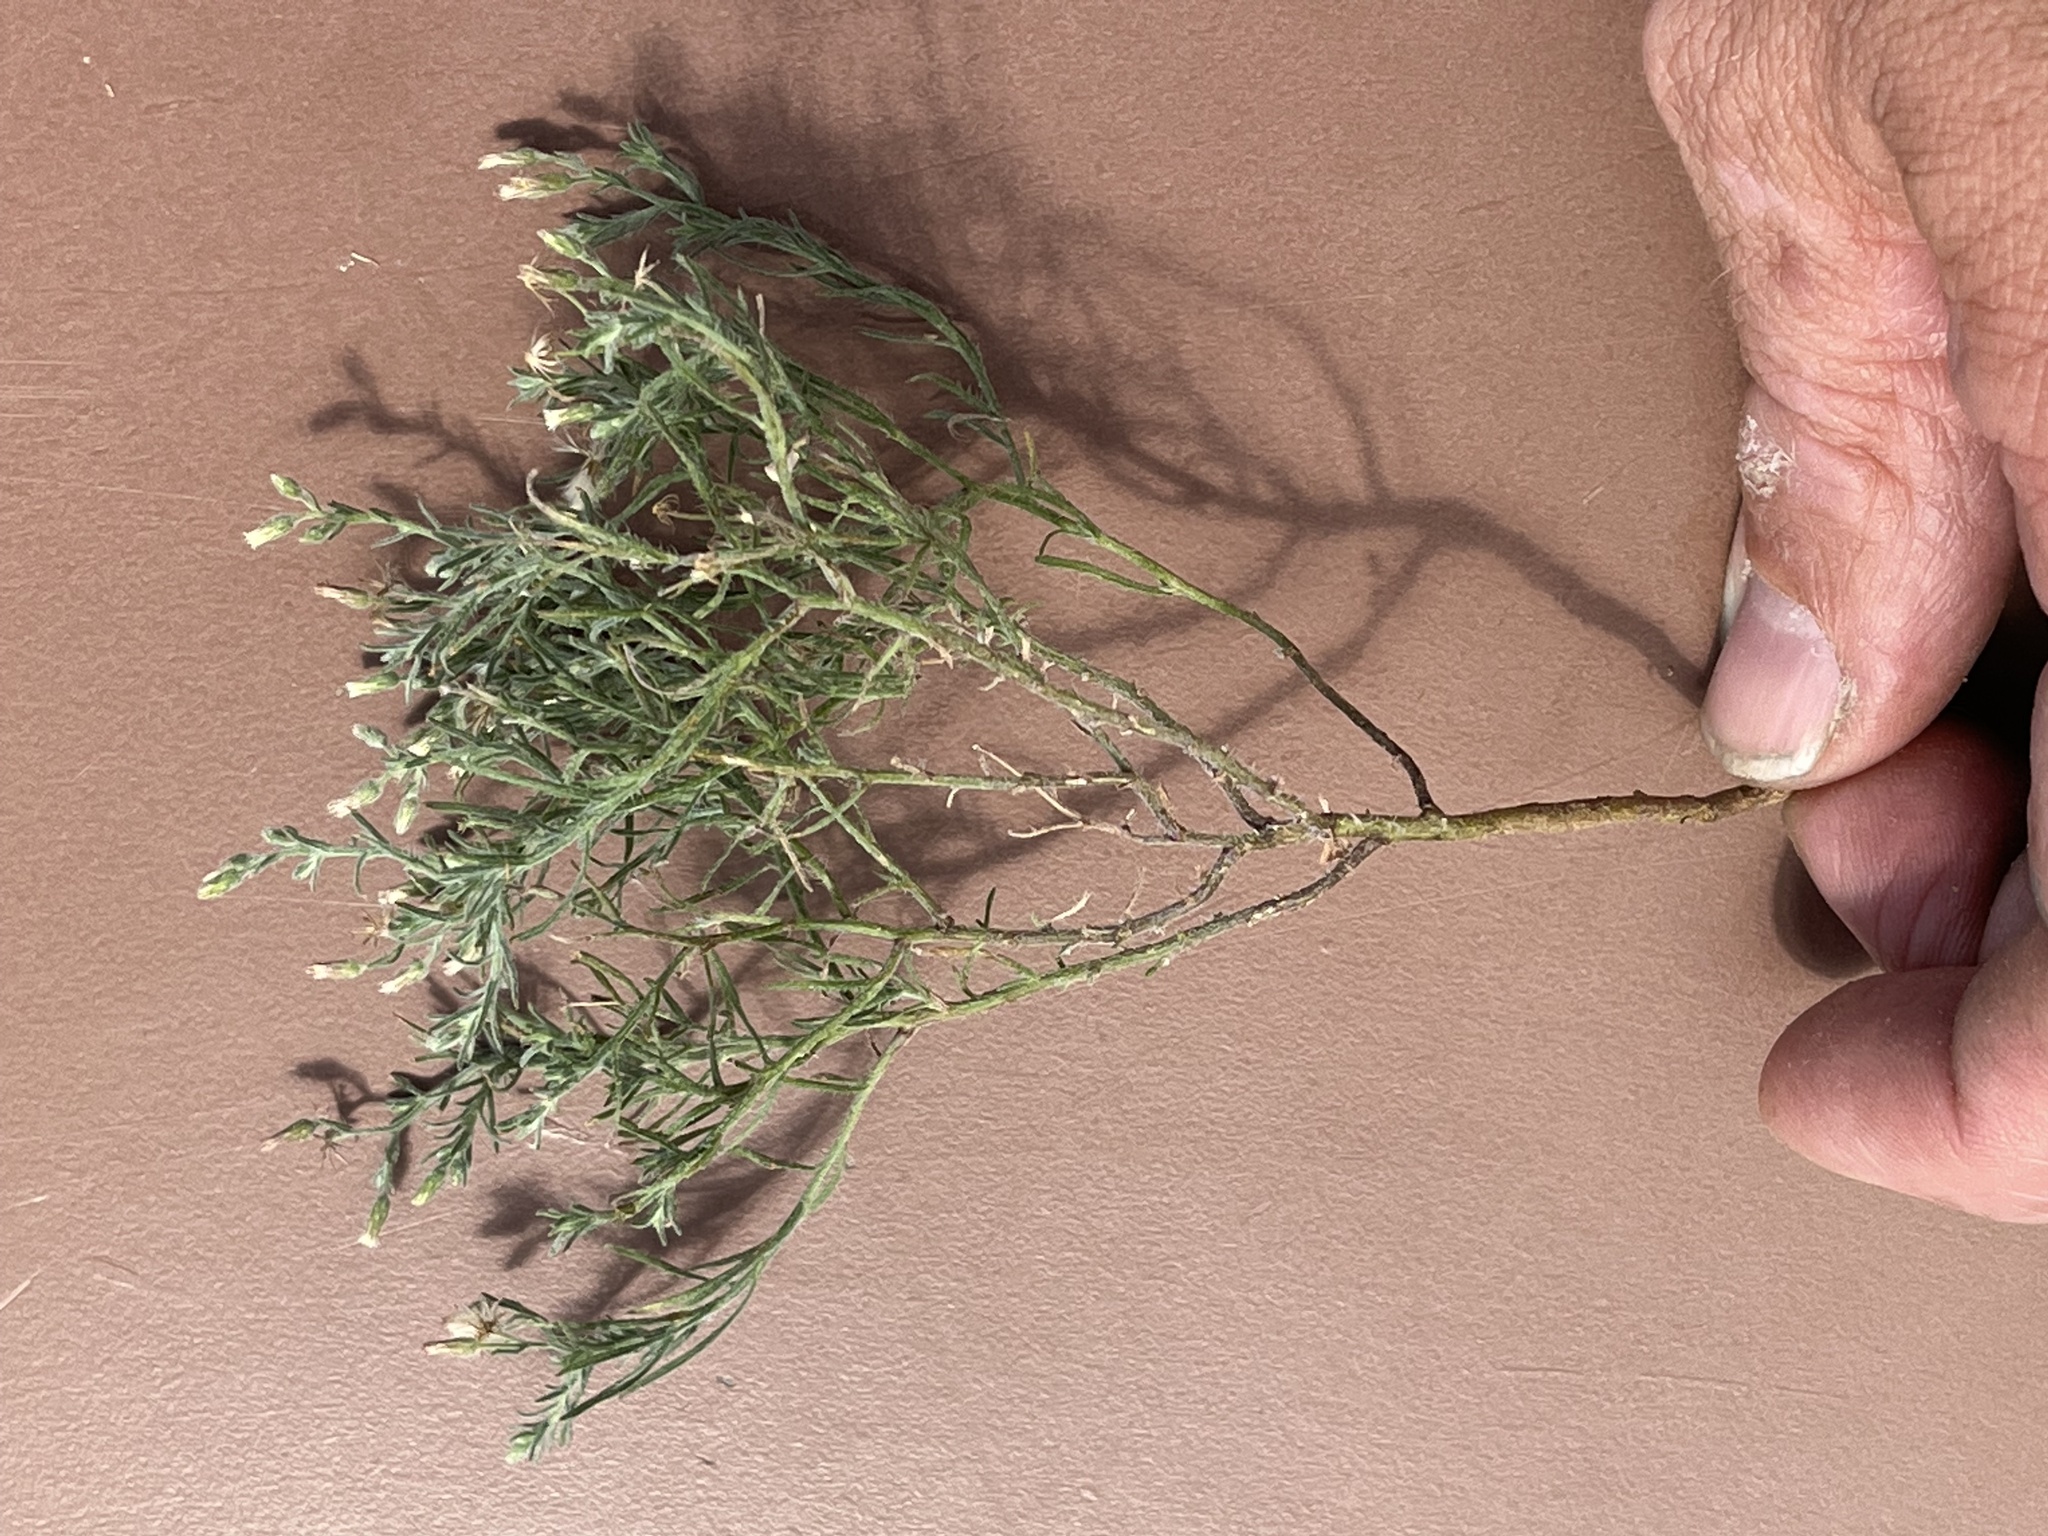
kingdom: Plantae
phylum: Tracheophyta
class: Magnoliopsida
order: Asterales
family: Asteraceae
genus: Erigeron
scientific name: Erigeron divaricatus
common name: Dwarf conyza
